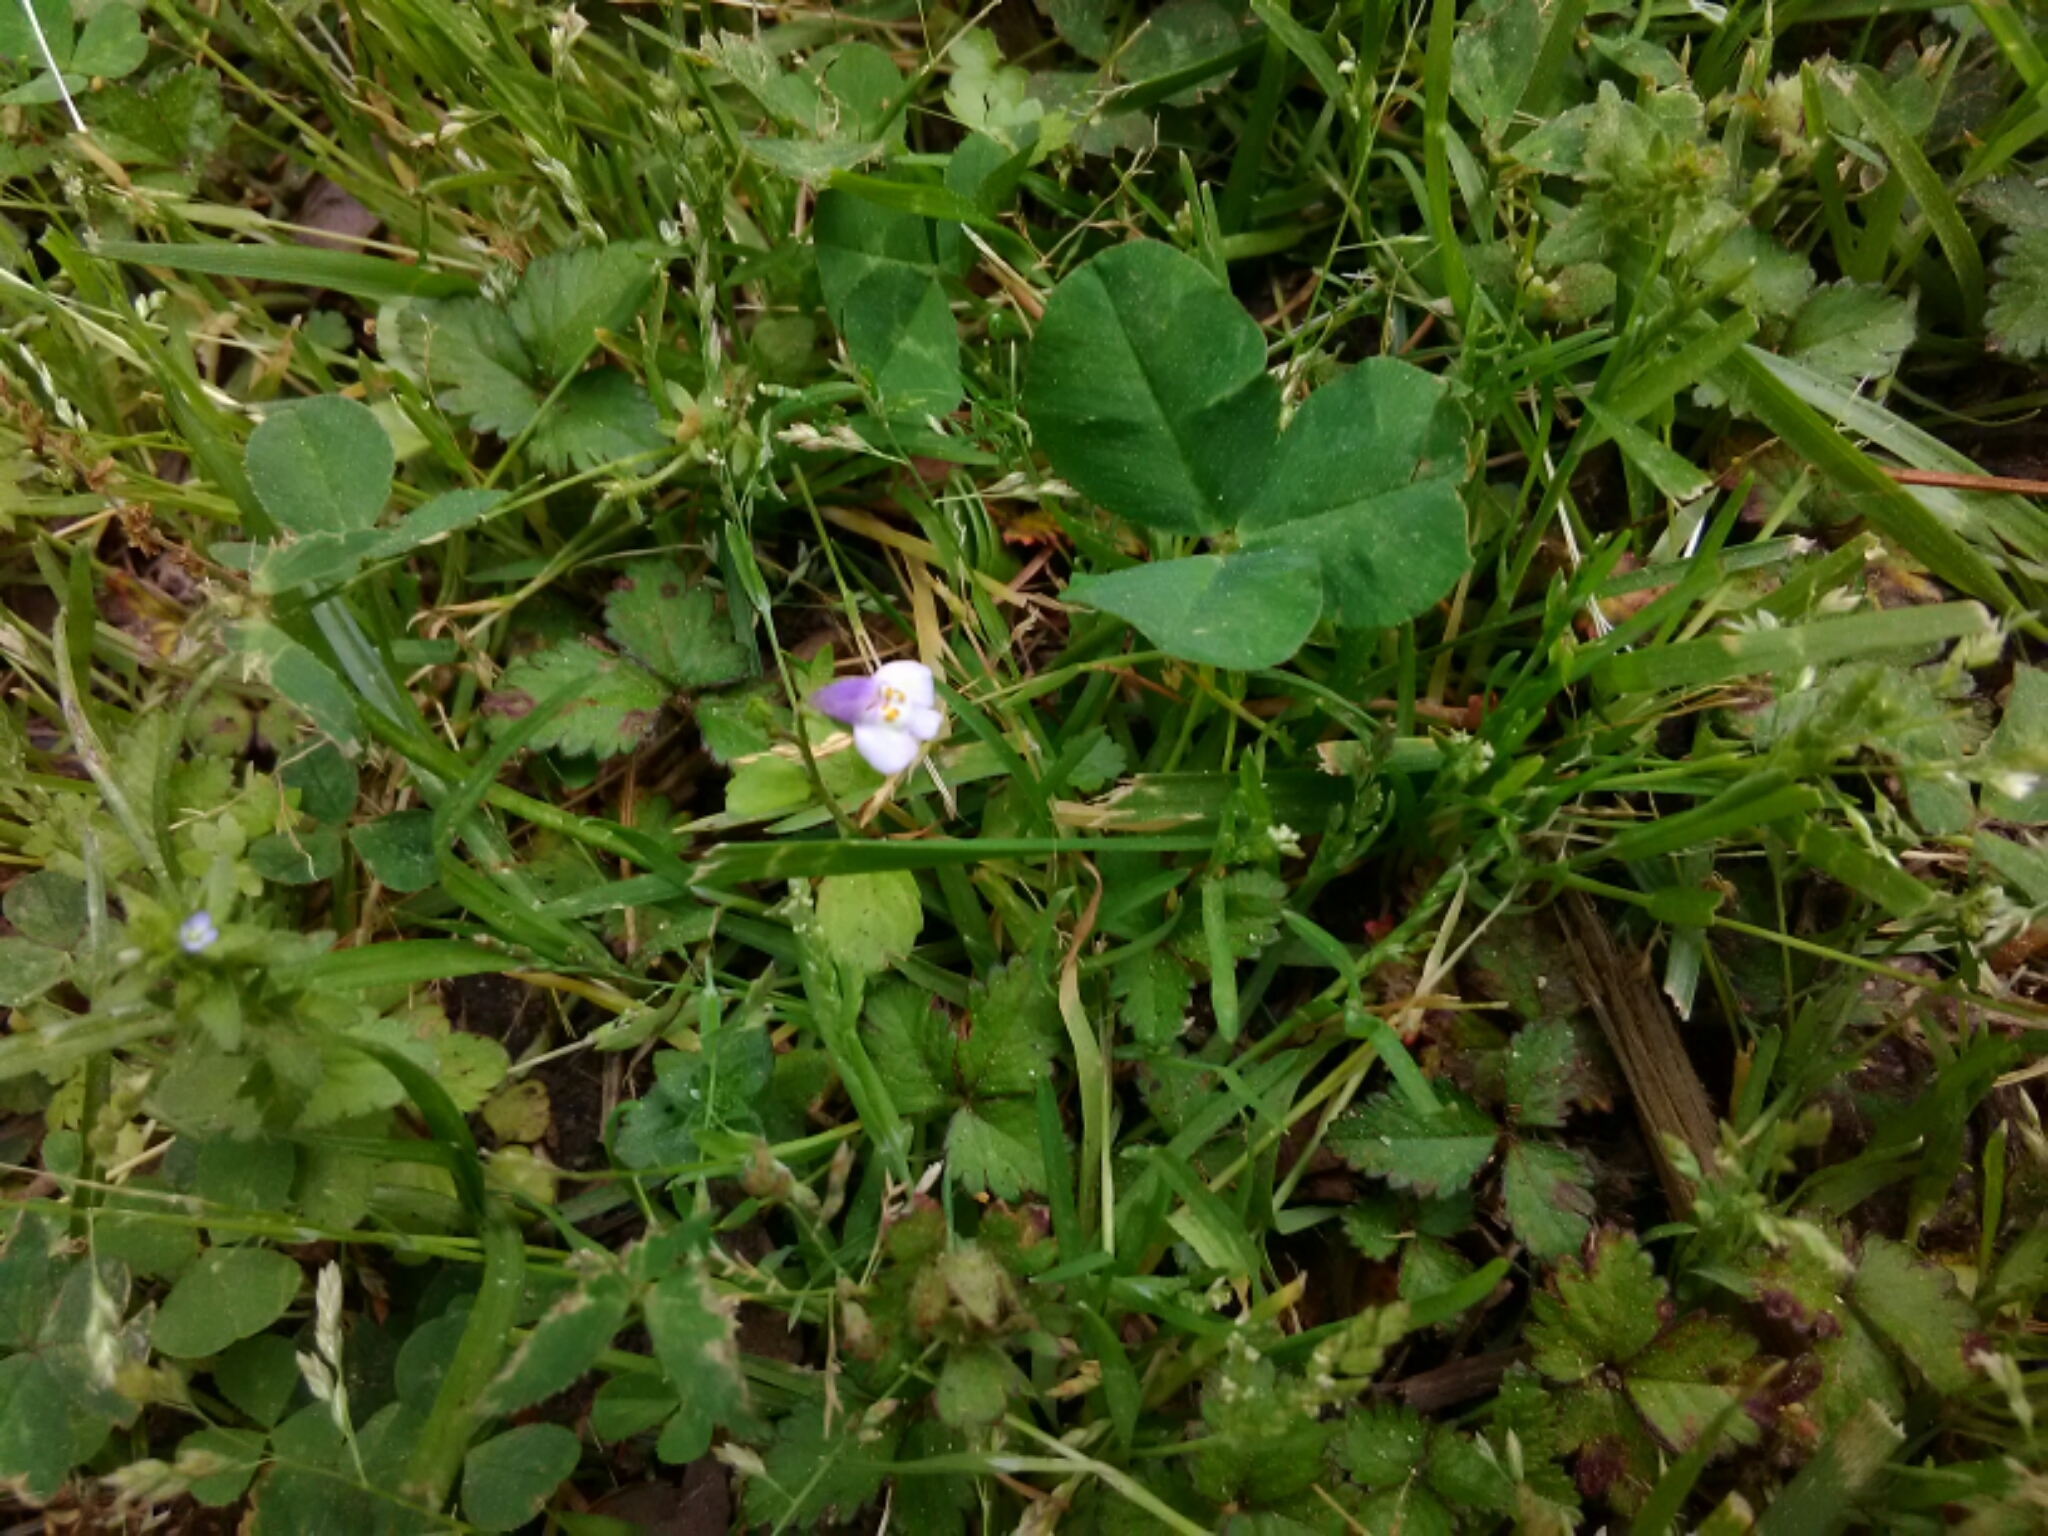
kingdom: Plantae
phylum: Tracheophyta
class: Magnoliopsida
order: Lamiales
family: Mazaceae
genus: Mazus
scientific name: Mazus pumilus
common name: Japanese mazus
